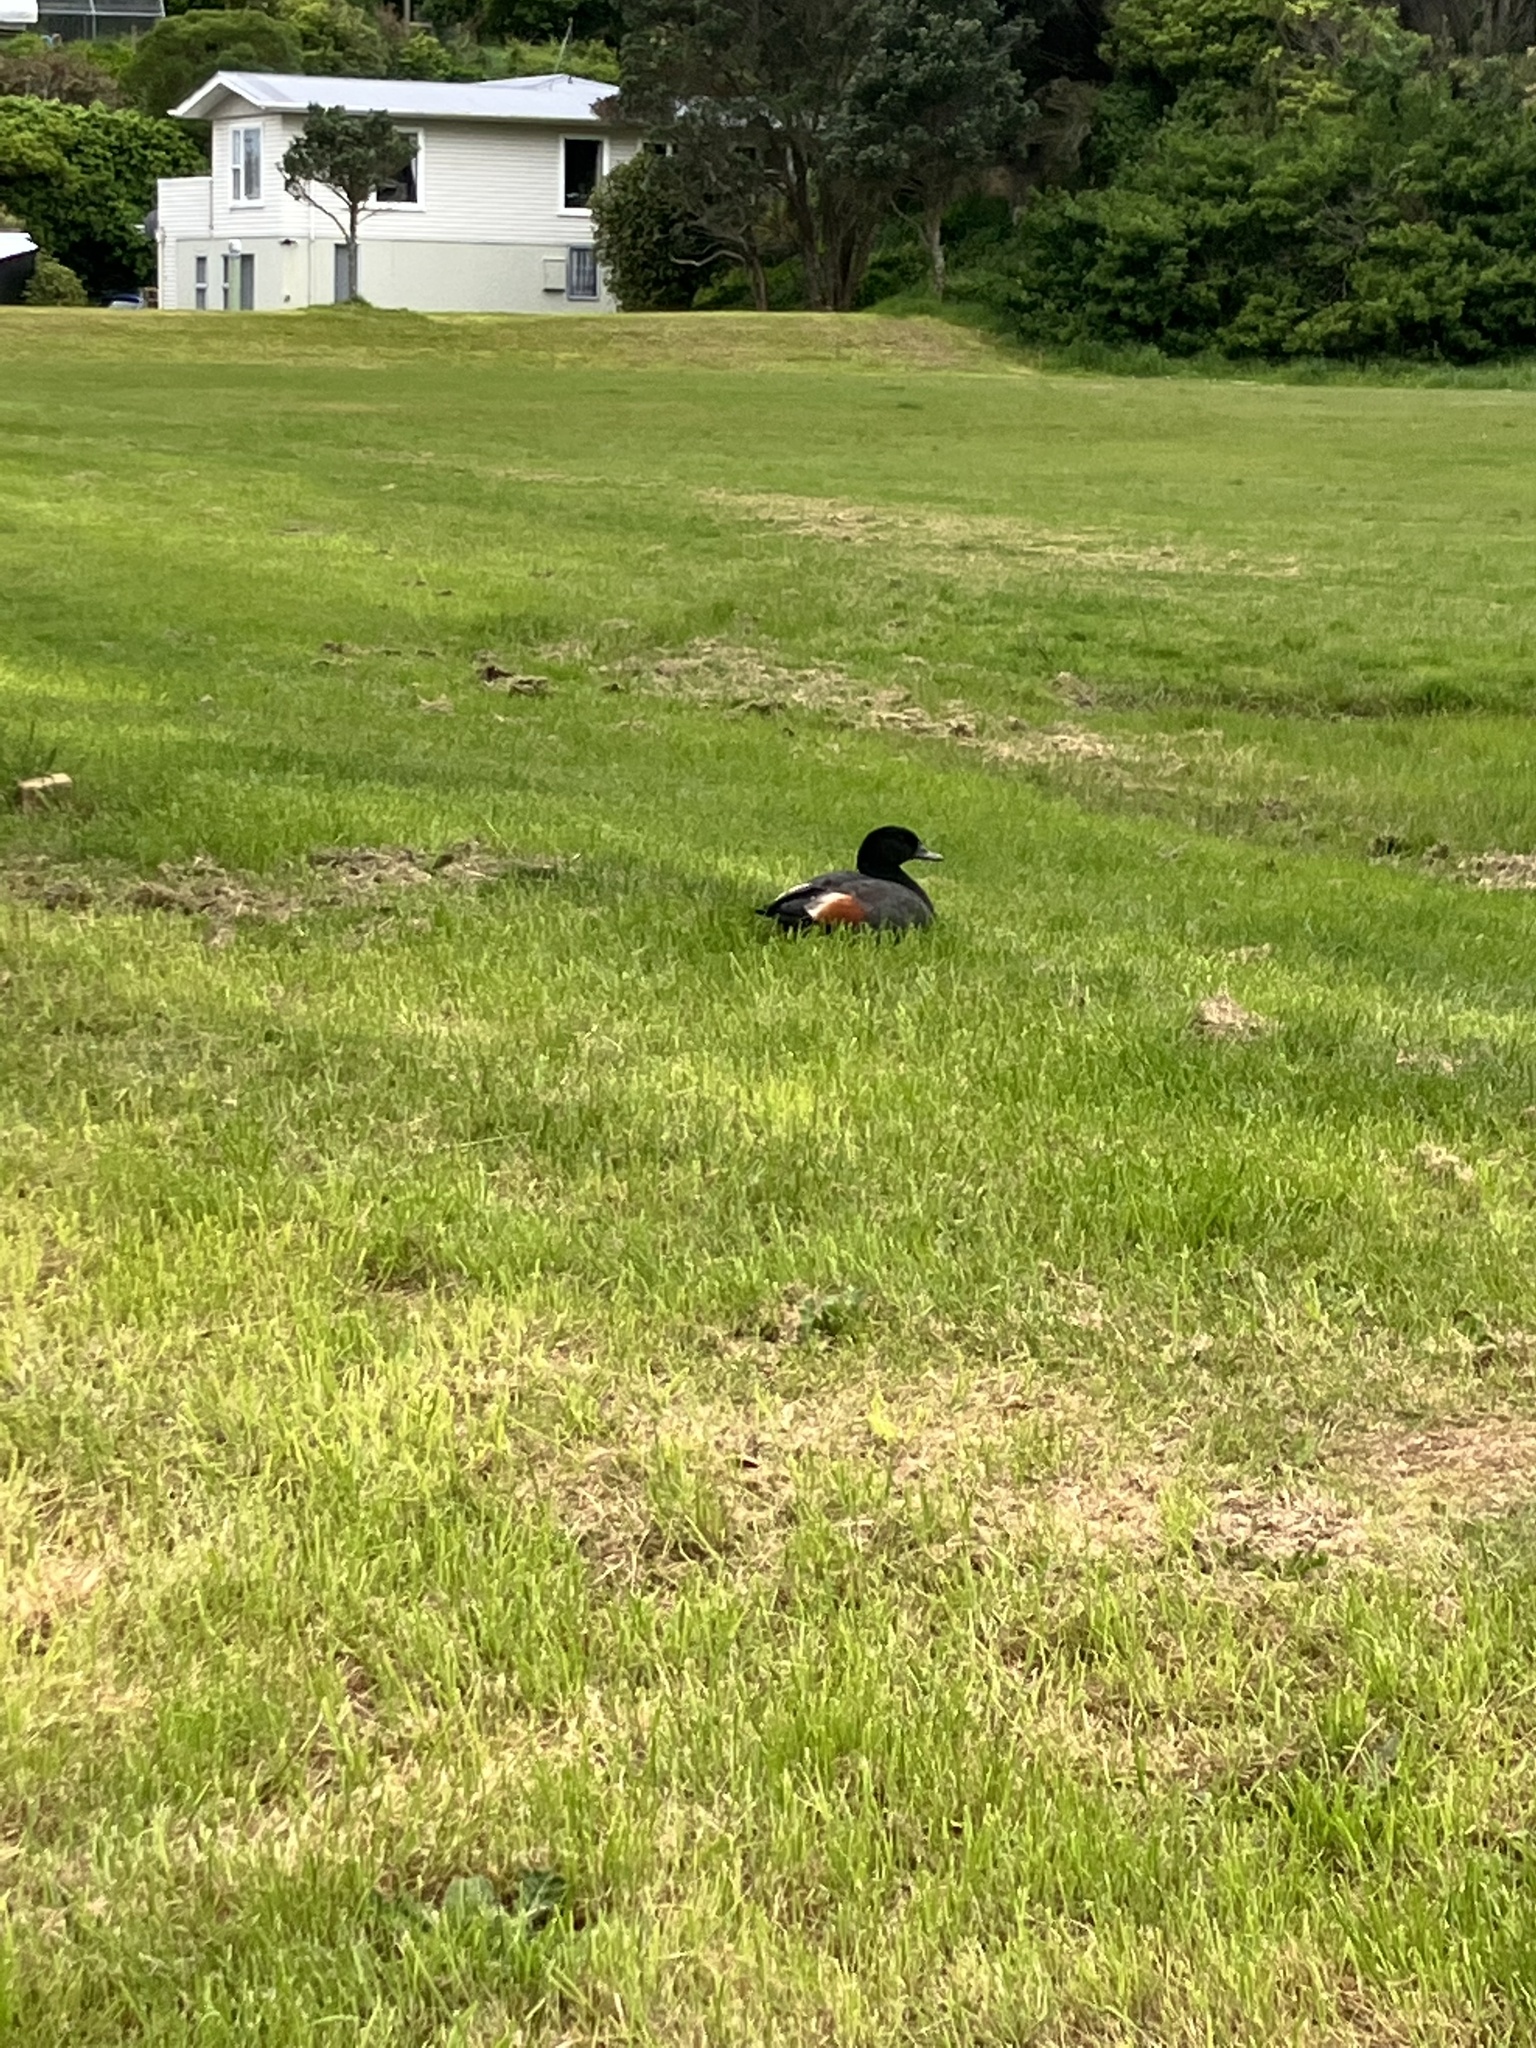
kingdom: Animalia
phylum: Chordata
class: Aves
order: Anseriformes
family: Anatidae
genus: Tadorna
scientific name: Tadorna variegata
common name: Paradise shelduck
